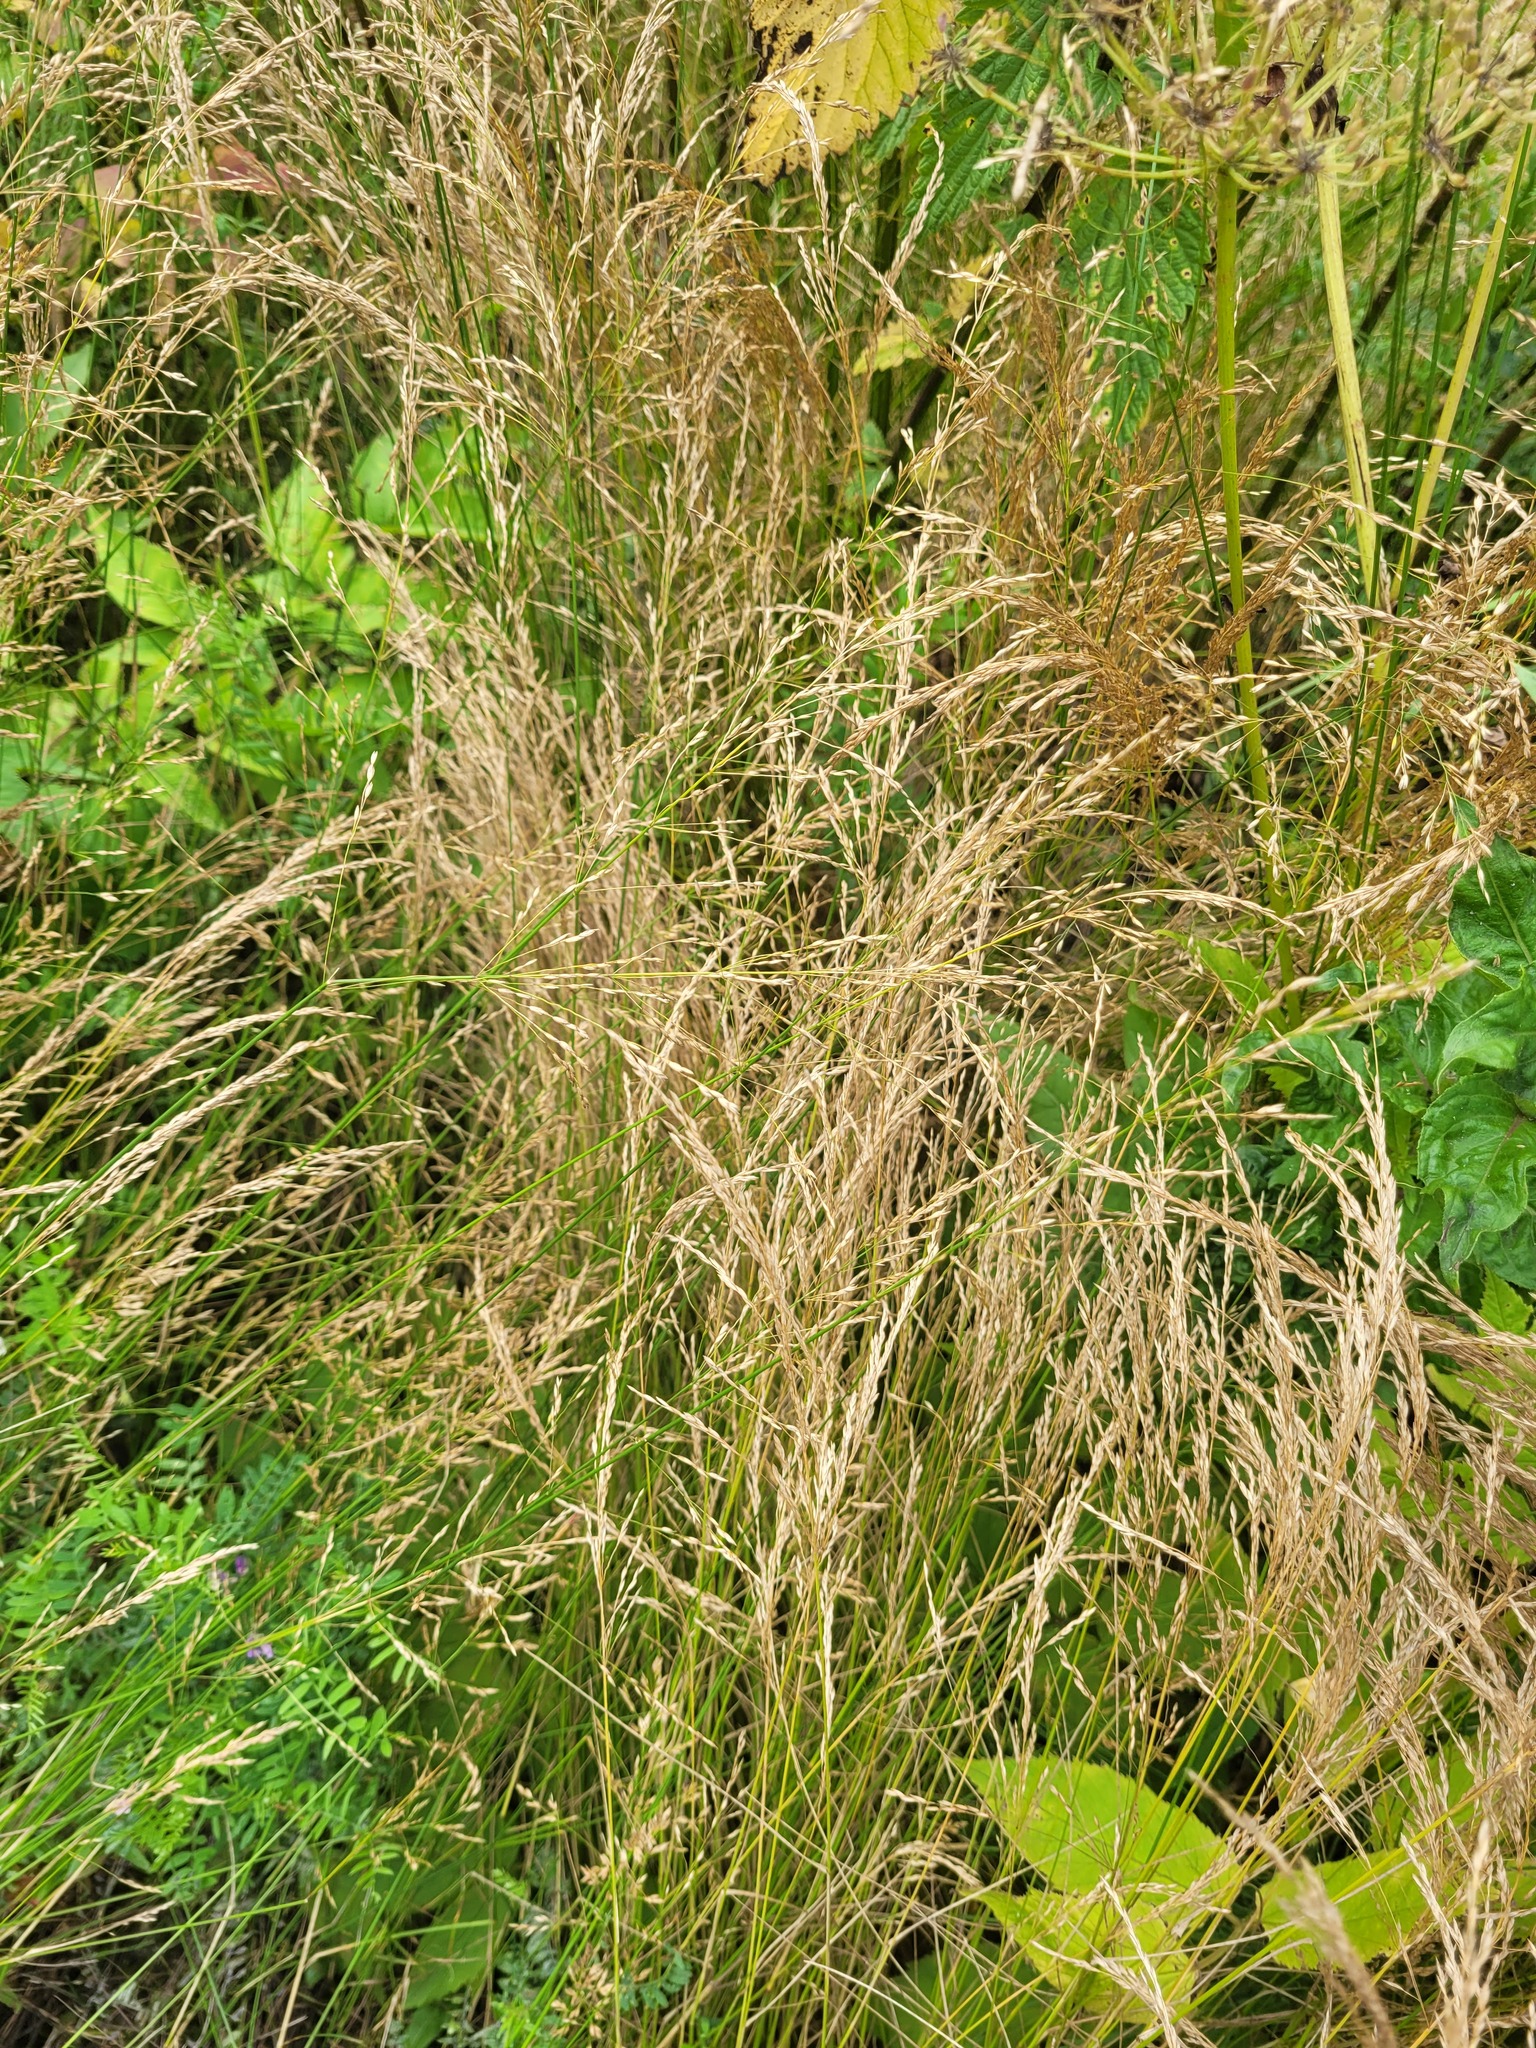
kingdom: Plantae
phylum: Tracheophyta
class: Liliopsida
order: Poales
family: Poaceae
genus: Poa
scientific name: Poa palustris
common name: Swamp meadow-grass
